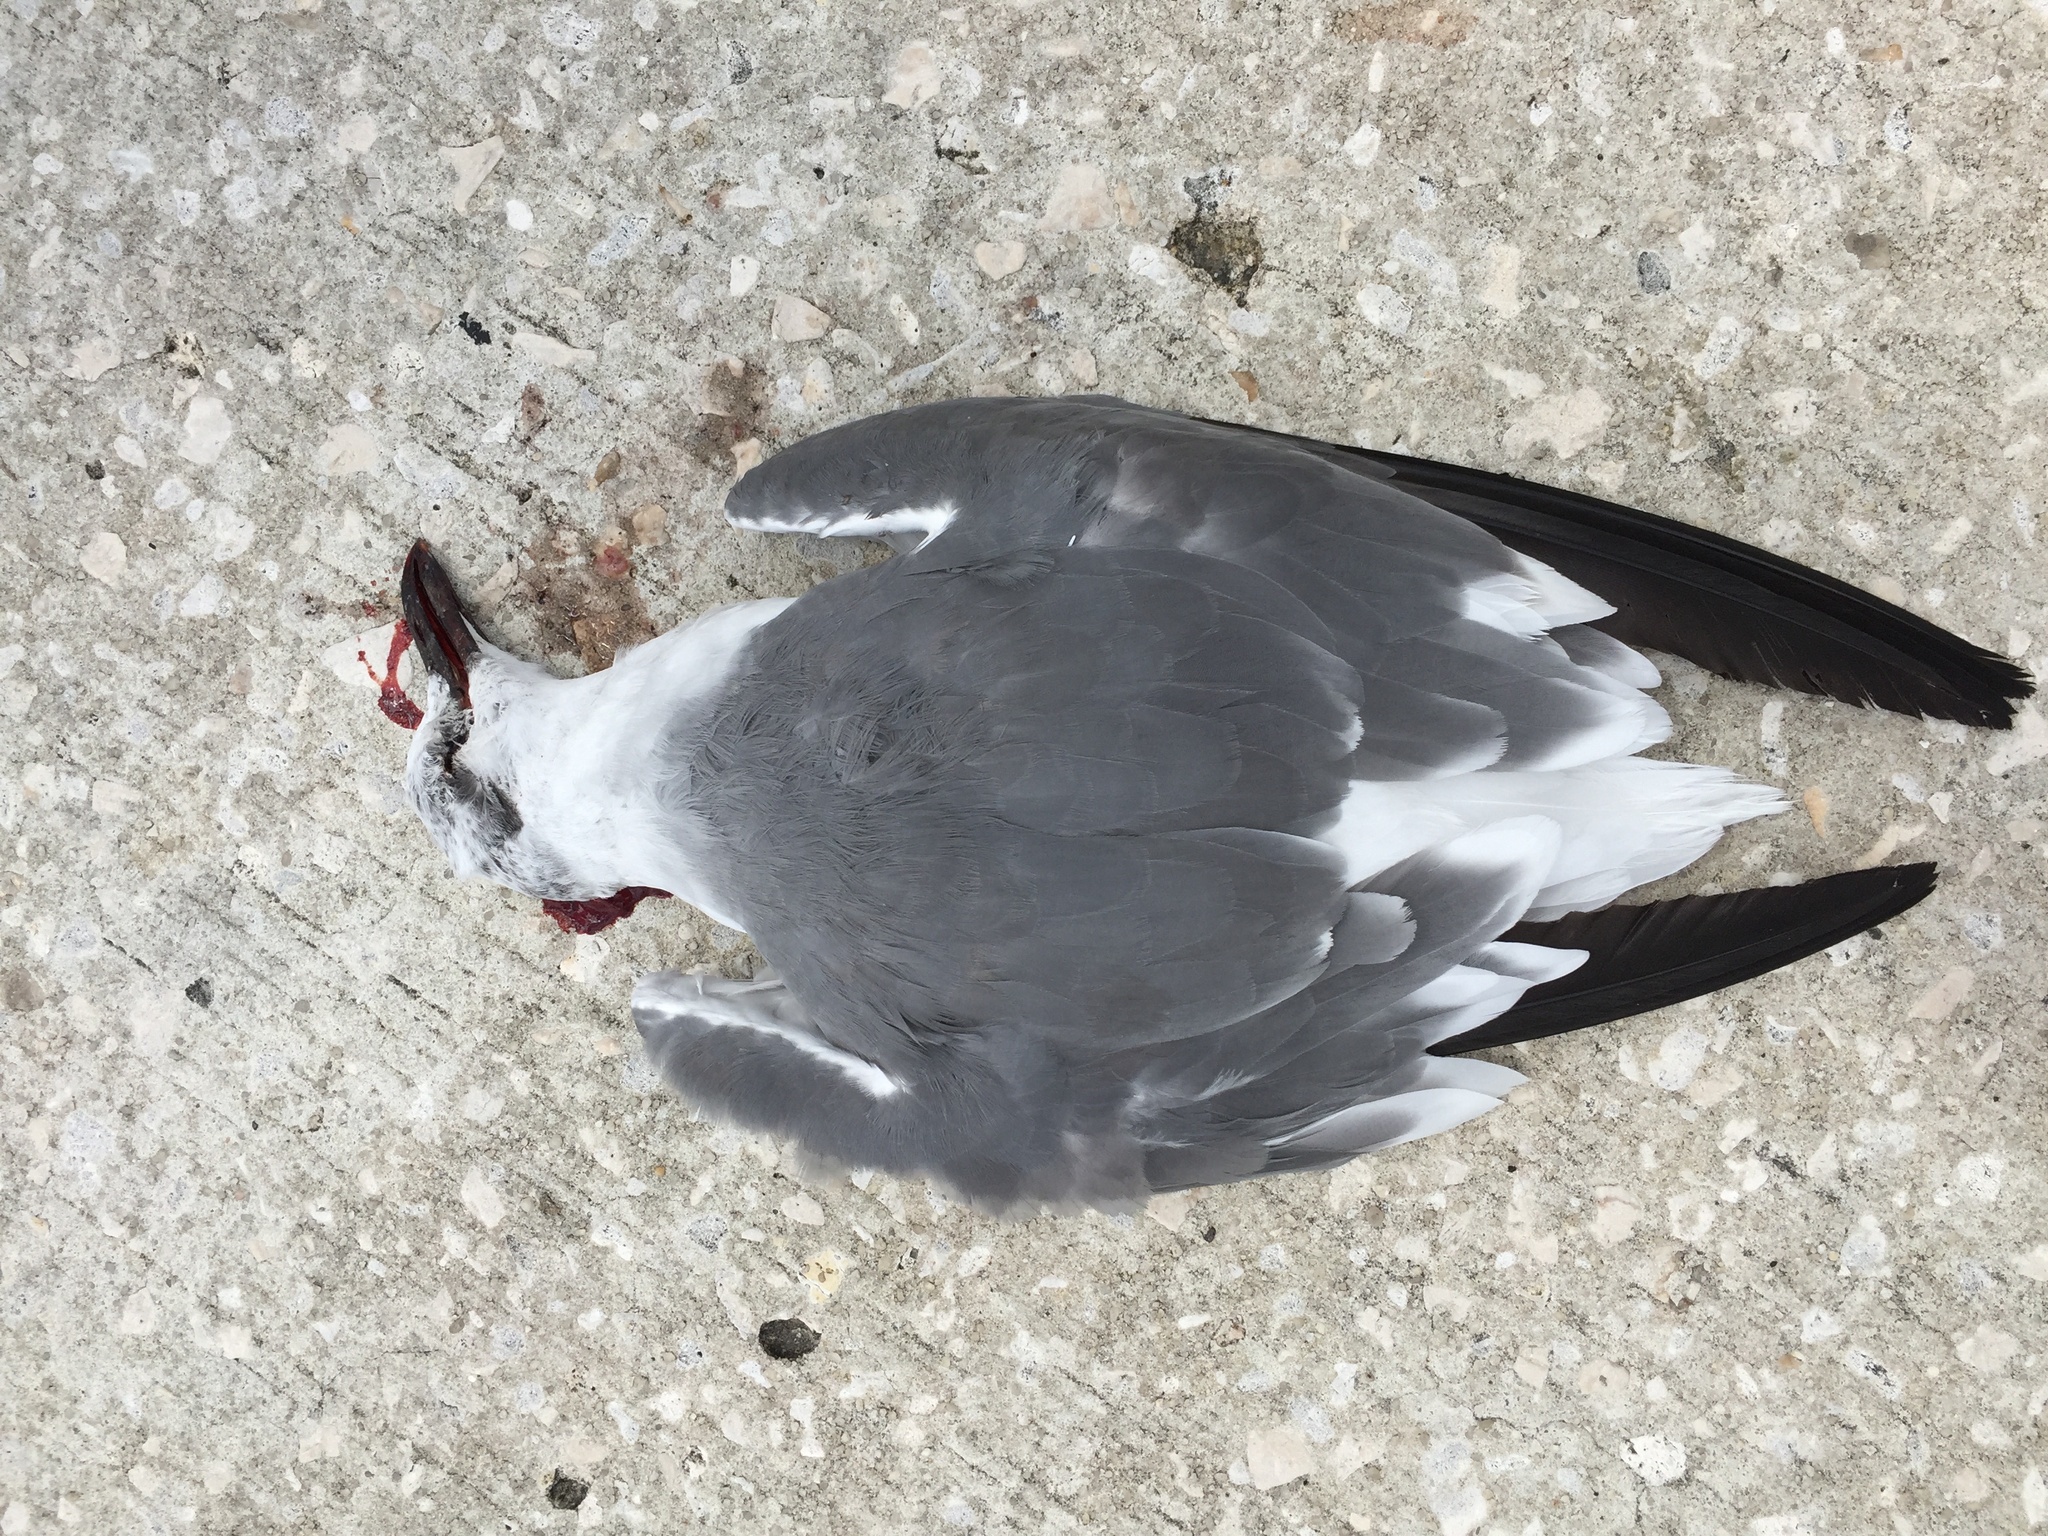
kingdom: Animalia
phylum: Chordata
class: Aves
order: Charadriiformes
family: Laridae
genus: Leucophaeus
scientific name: Leucophaeus atricilla
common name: Laughing gull
